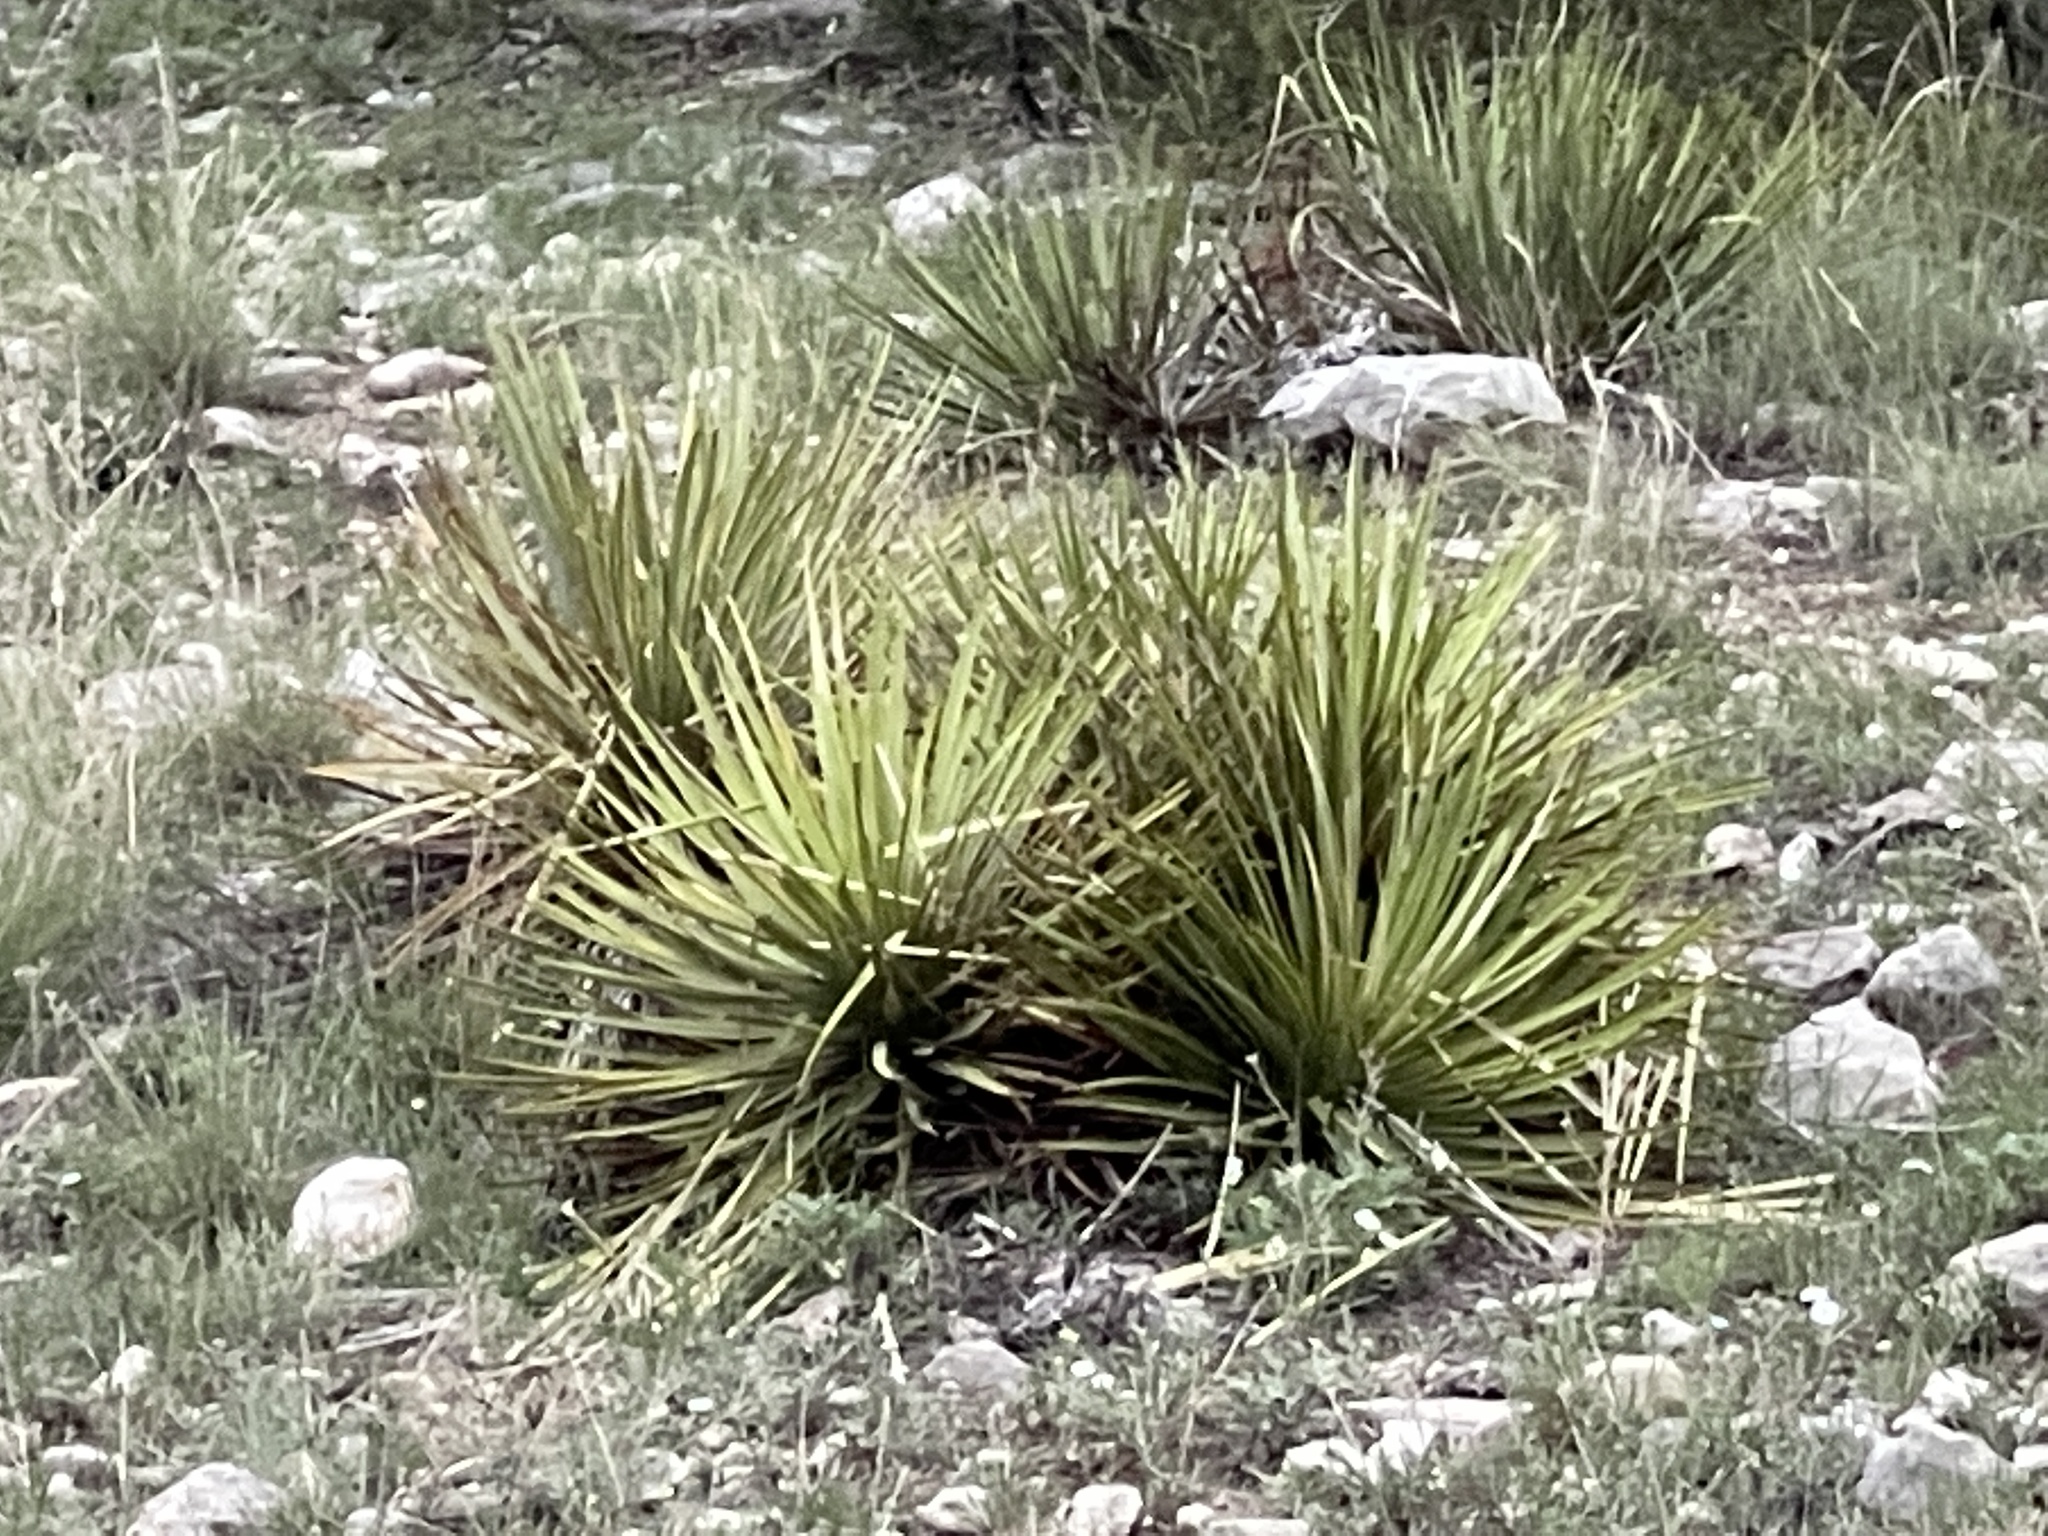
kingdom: Plantae
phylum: Tracheophyta
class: Liliopsida
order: Asparagales
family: Asparagaceae
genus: Yucca
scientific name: Yucca reverchonii
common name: San angelo yucca
